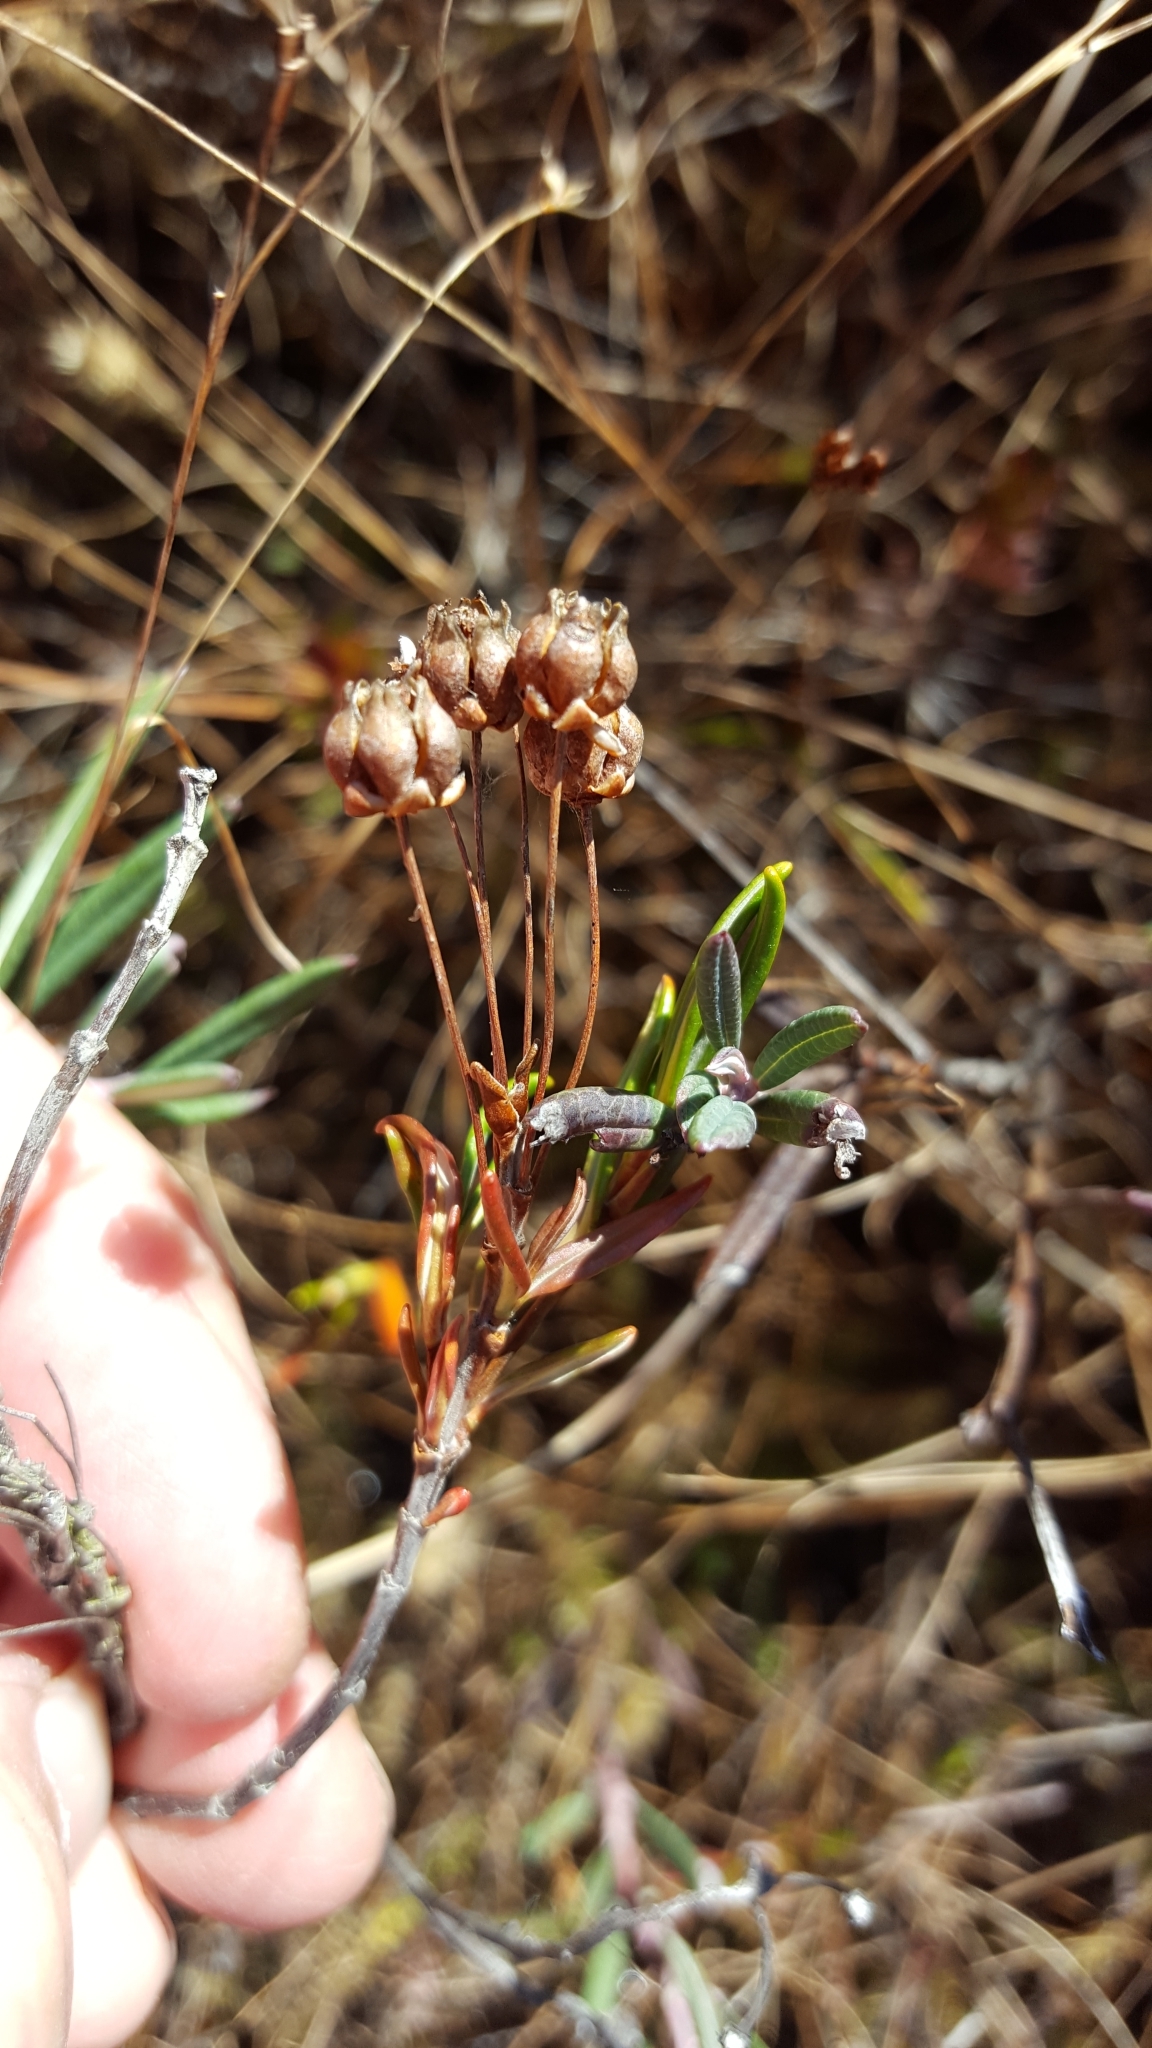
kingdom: Plantae
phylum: Tracheophyta
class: Magnoliopsida
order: Ericales
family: Ericaceae
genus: Kalmia
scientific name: Kalmia polifolia
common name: Bog-laurel
